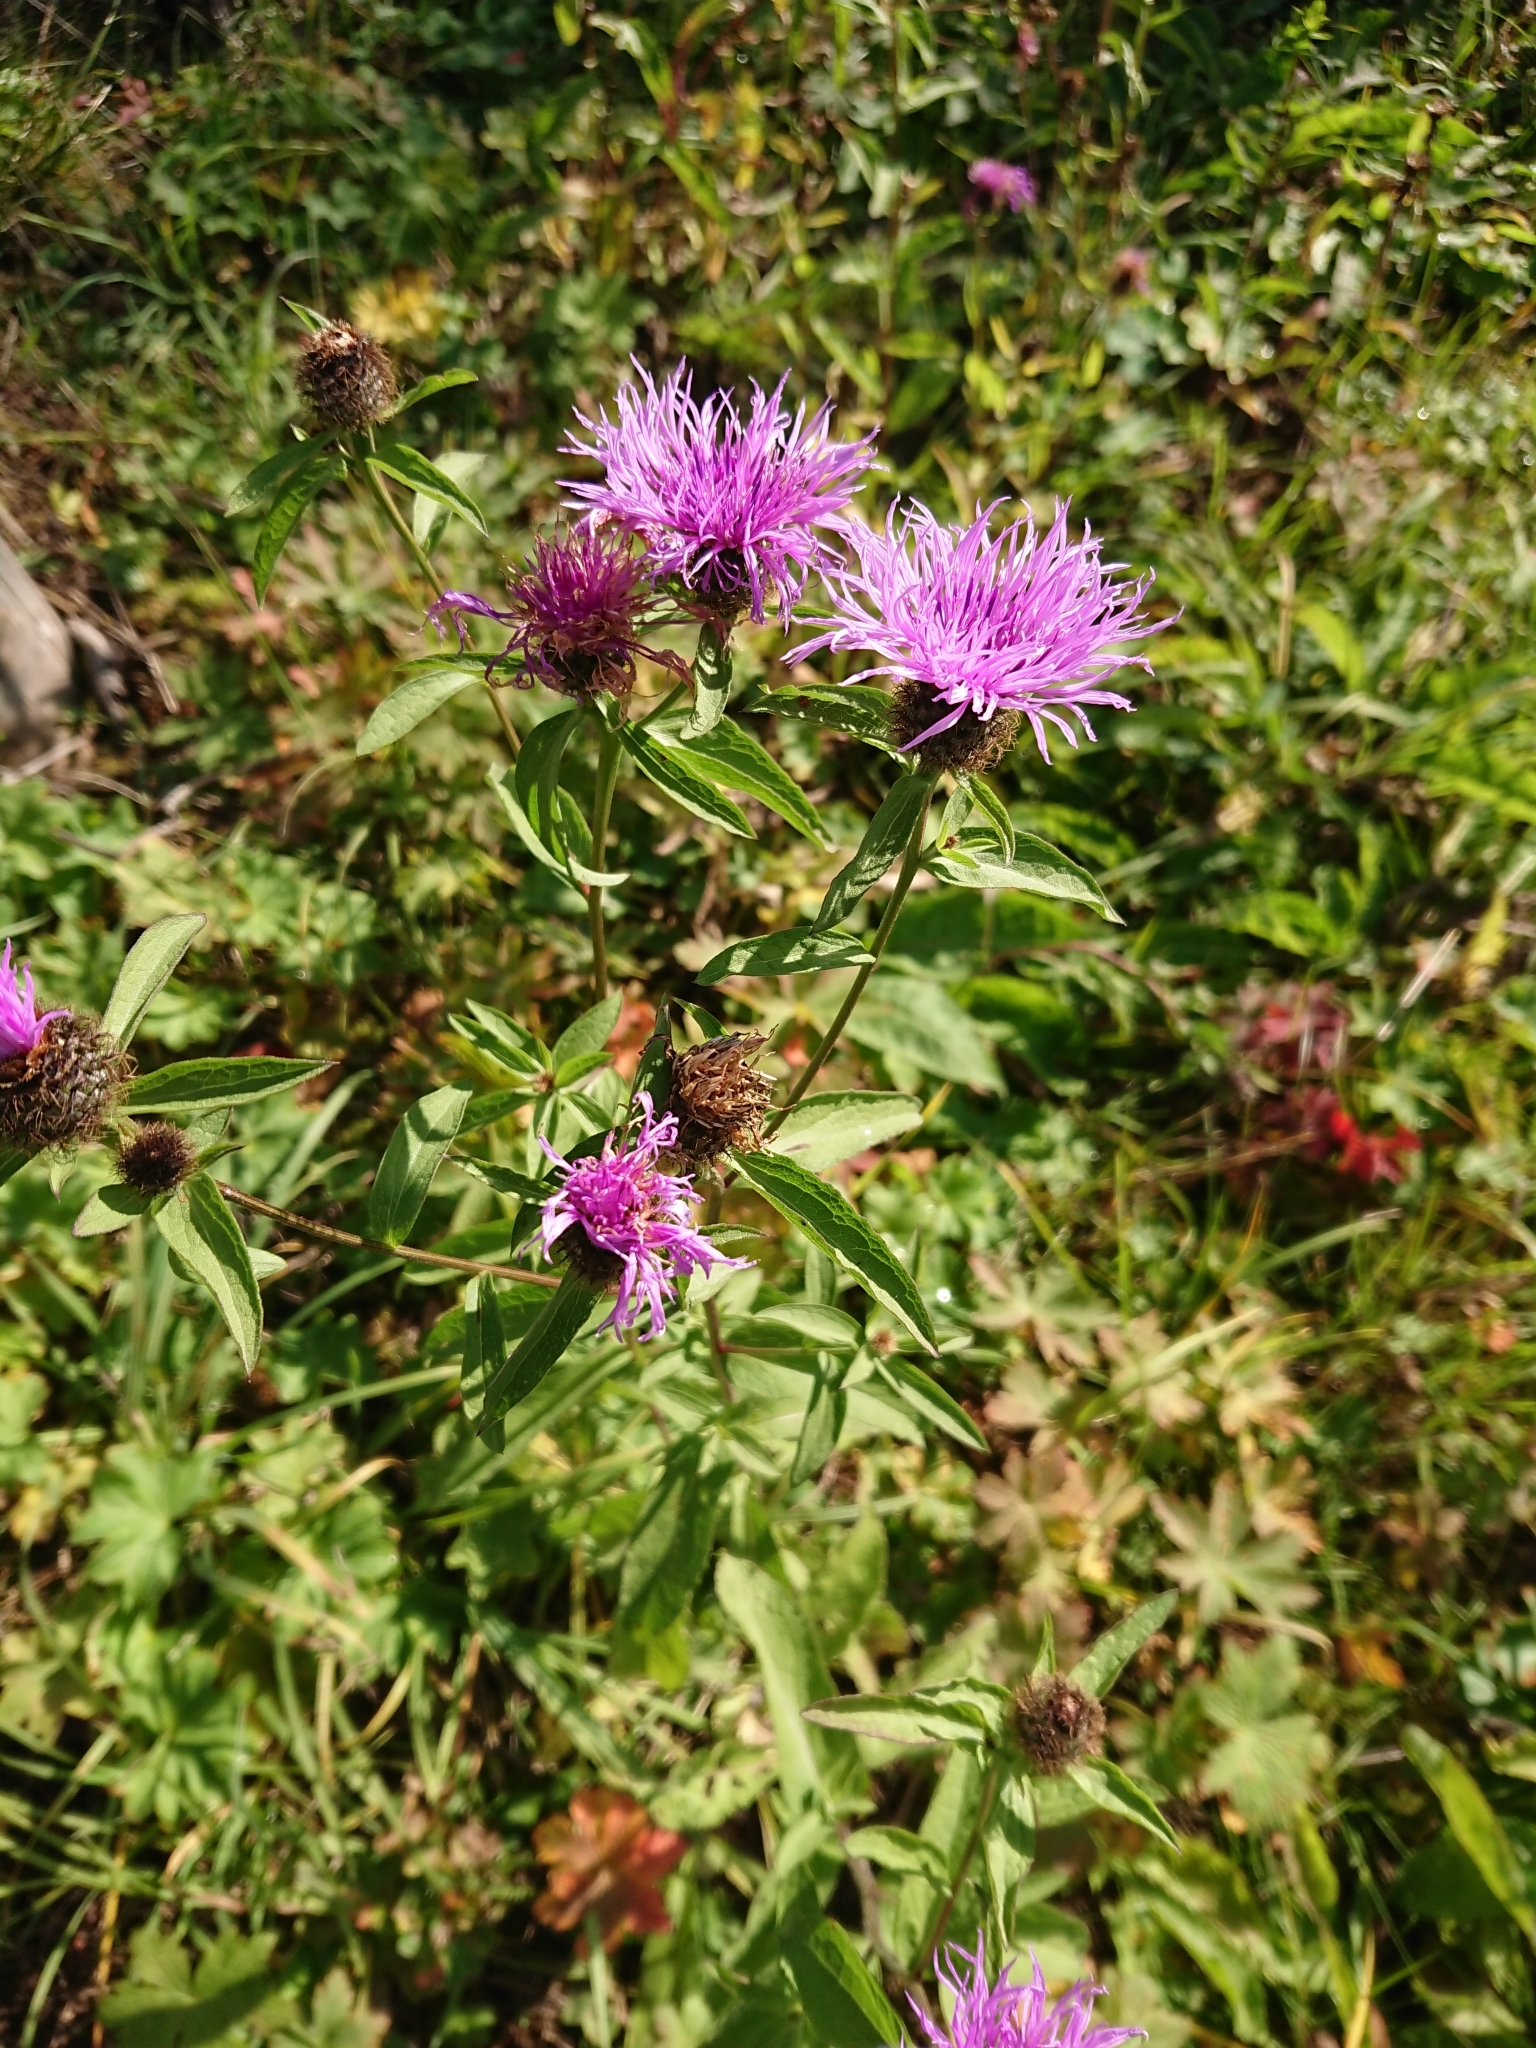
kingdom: Plantae
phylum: Tracheophyta
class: Magnoliopsida
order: Asterales
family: Asteraceae
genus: Centaurea
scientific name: Centaurea phrygia
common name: Wig knapweed
